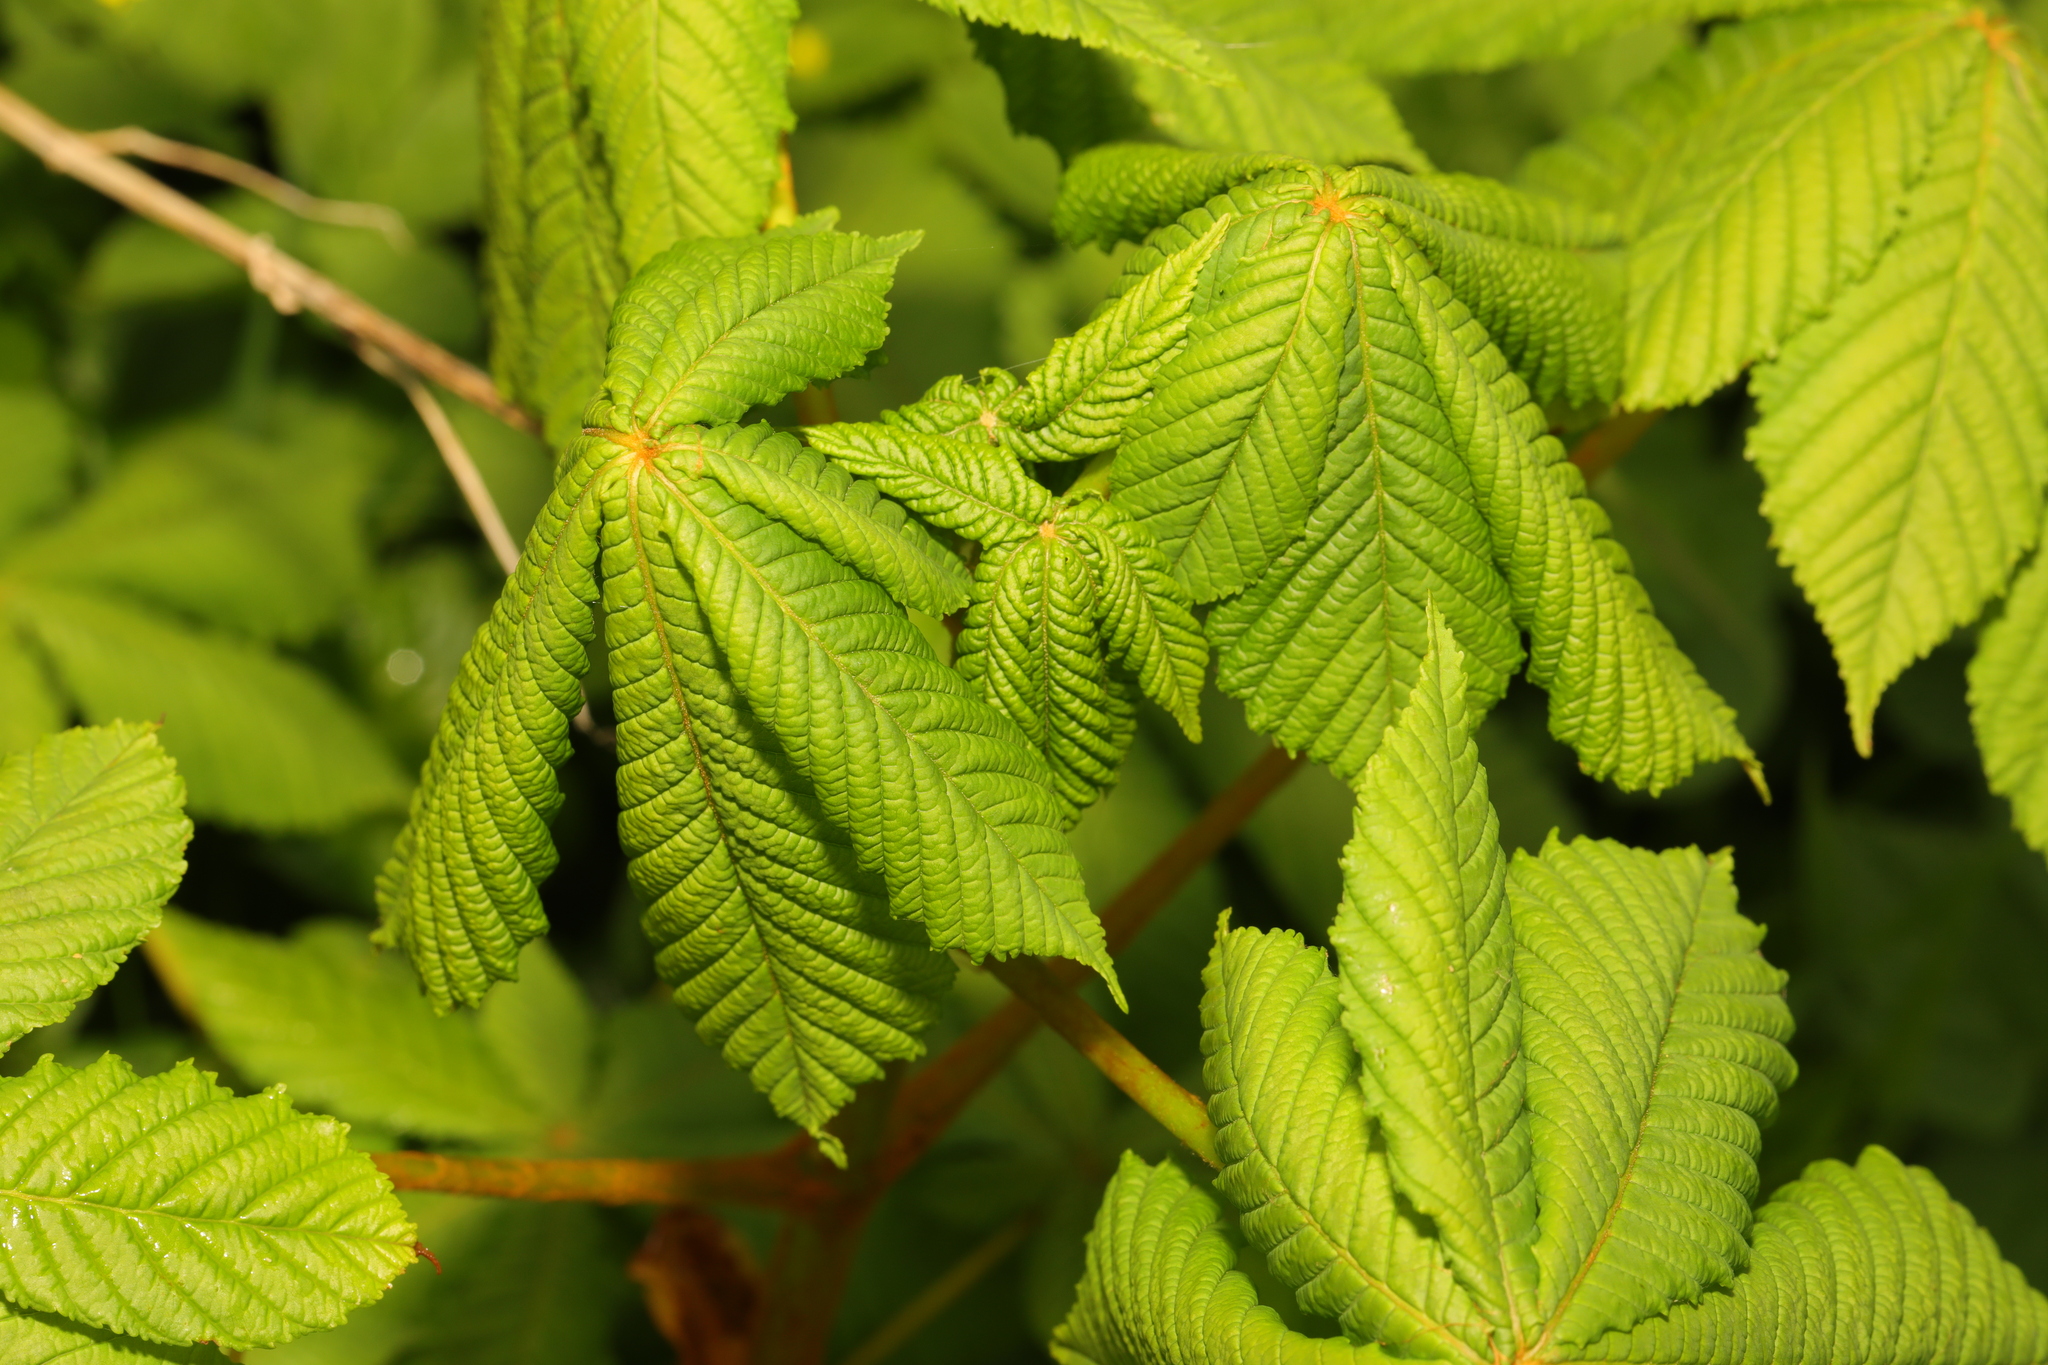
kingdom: Plantae
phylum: Tracheophyta
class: Magnoliopsida
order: Sapindales
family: Sapindaceae
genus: Aesculus
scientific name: Aesculus hippocastanum
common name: Horse-chestnut
